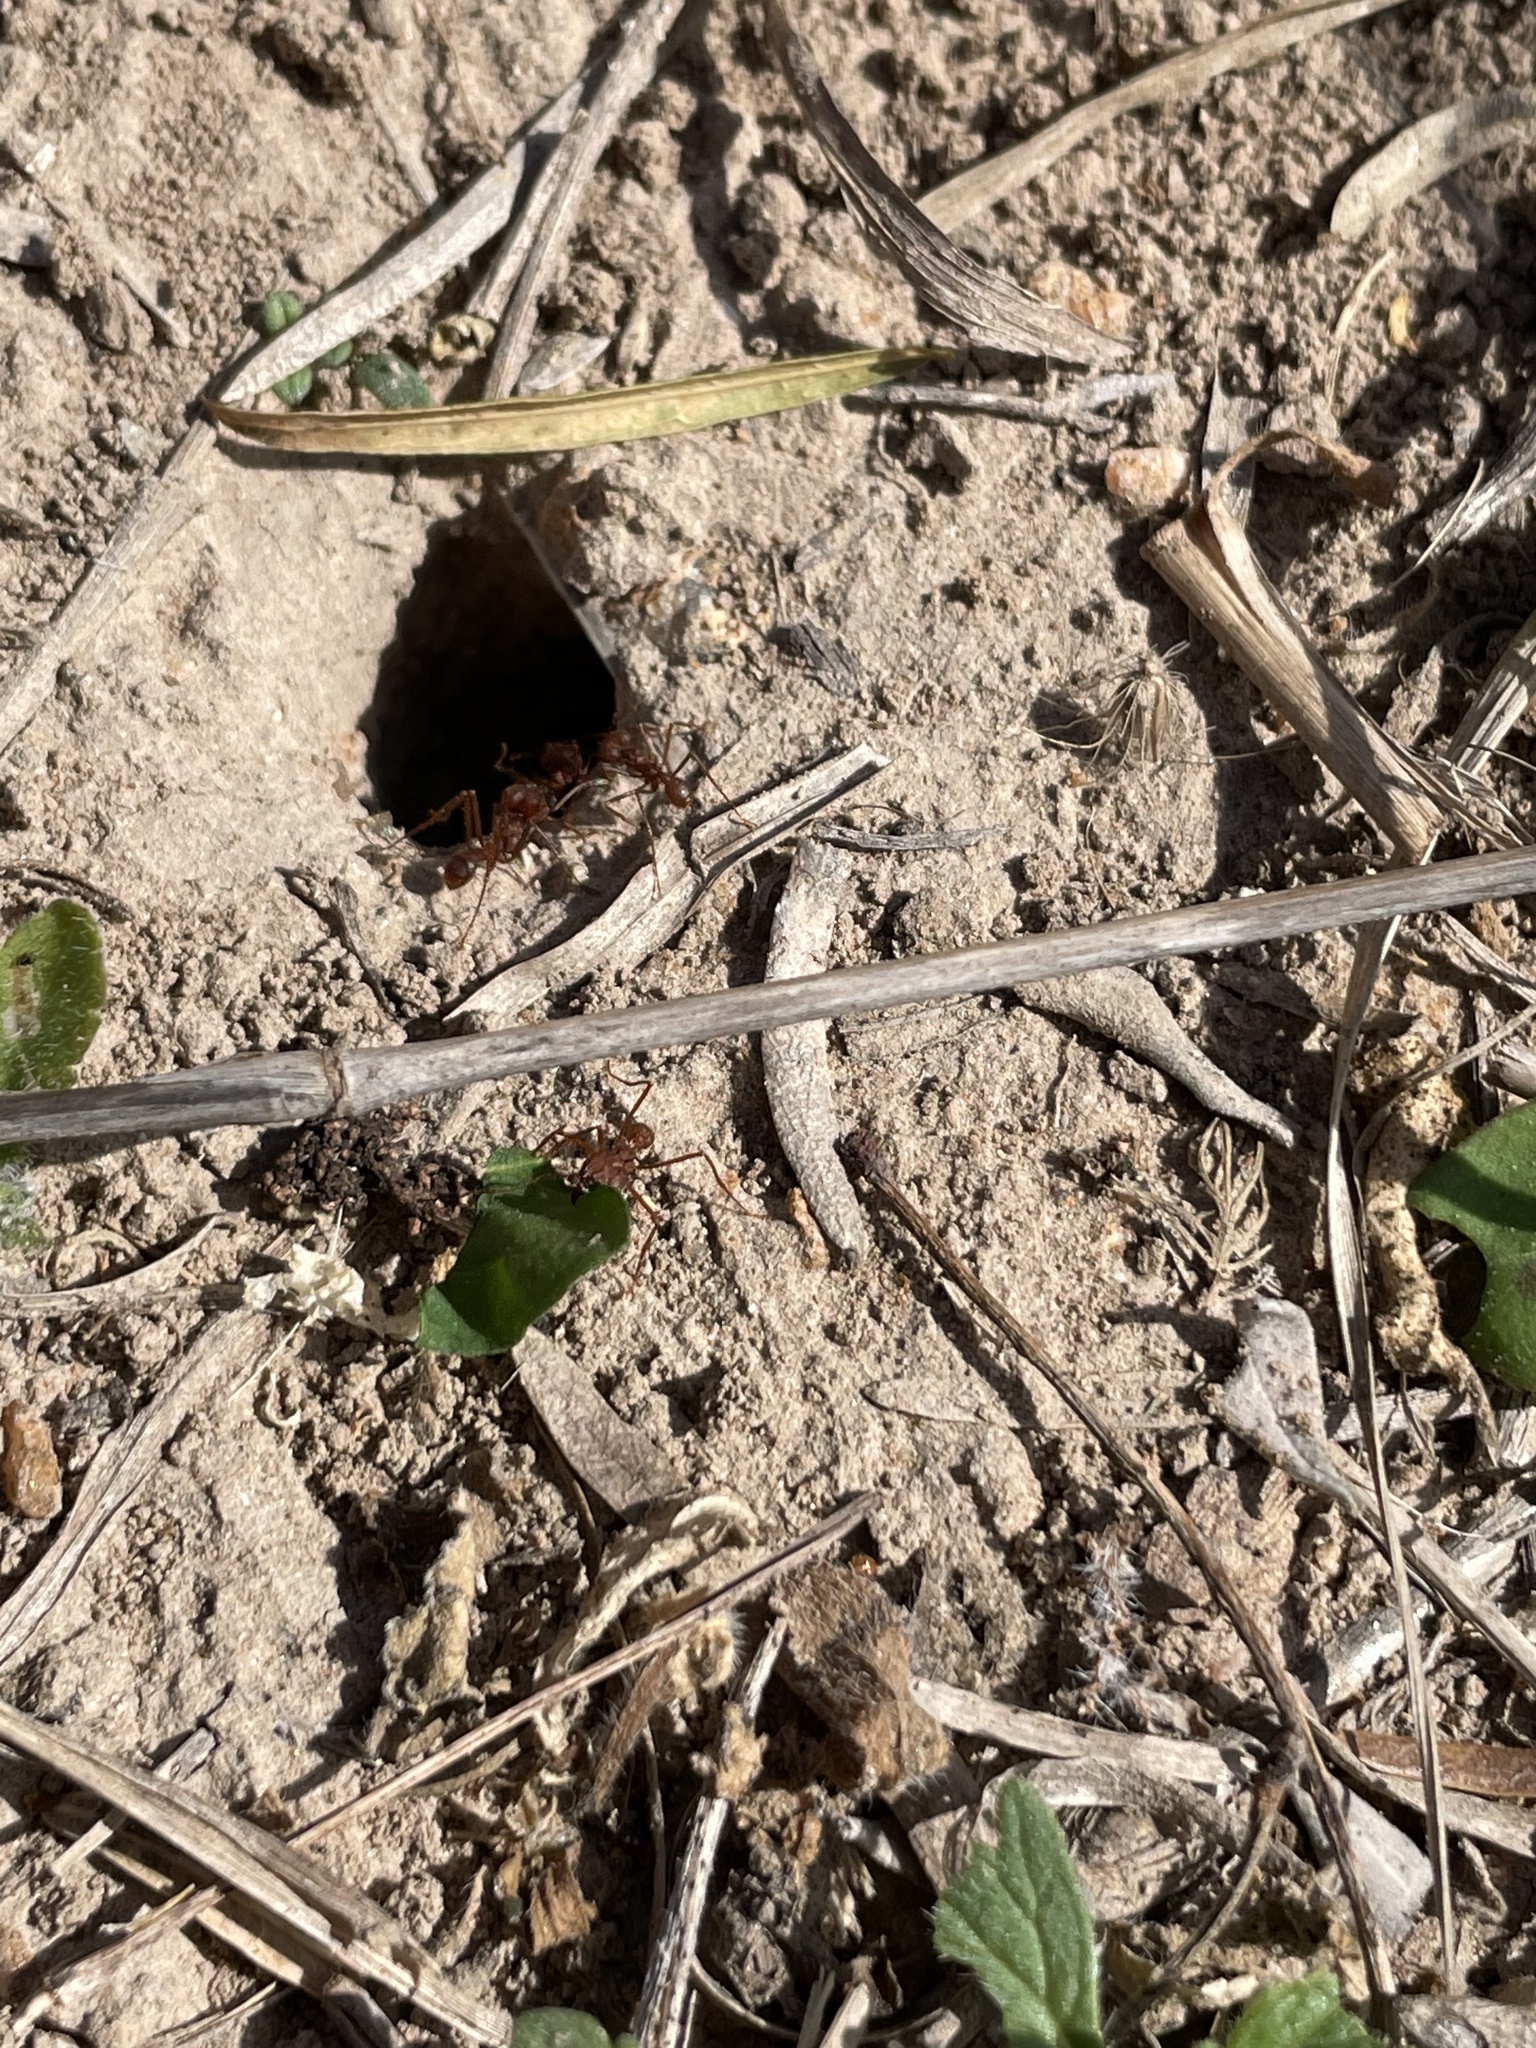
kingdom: Animalia
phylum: Arthropoda
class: Insecta
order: Hymenoptera
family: Formicidae
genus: Atta
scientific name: Atta texana
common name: Texas leafcutting ant
